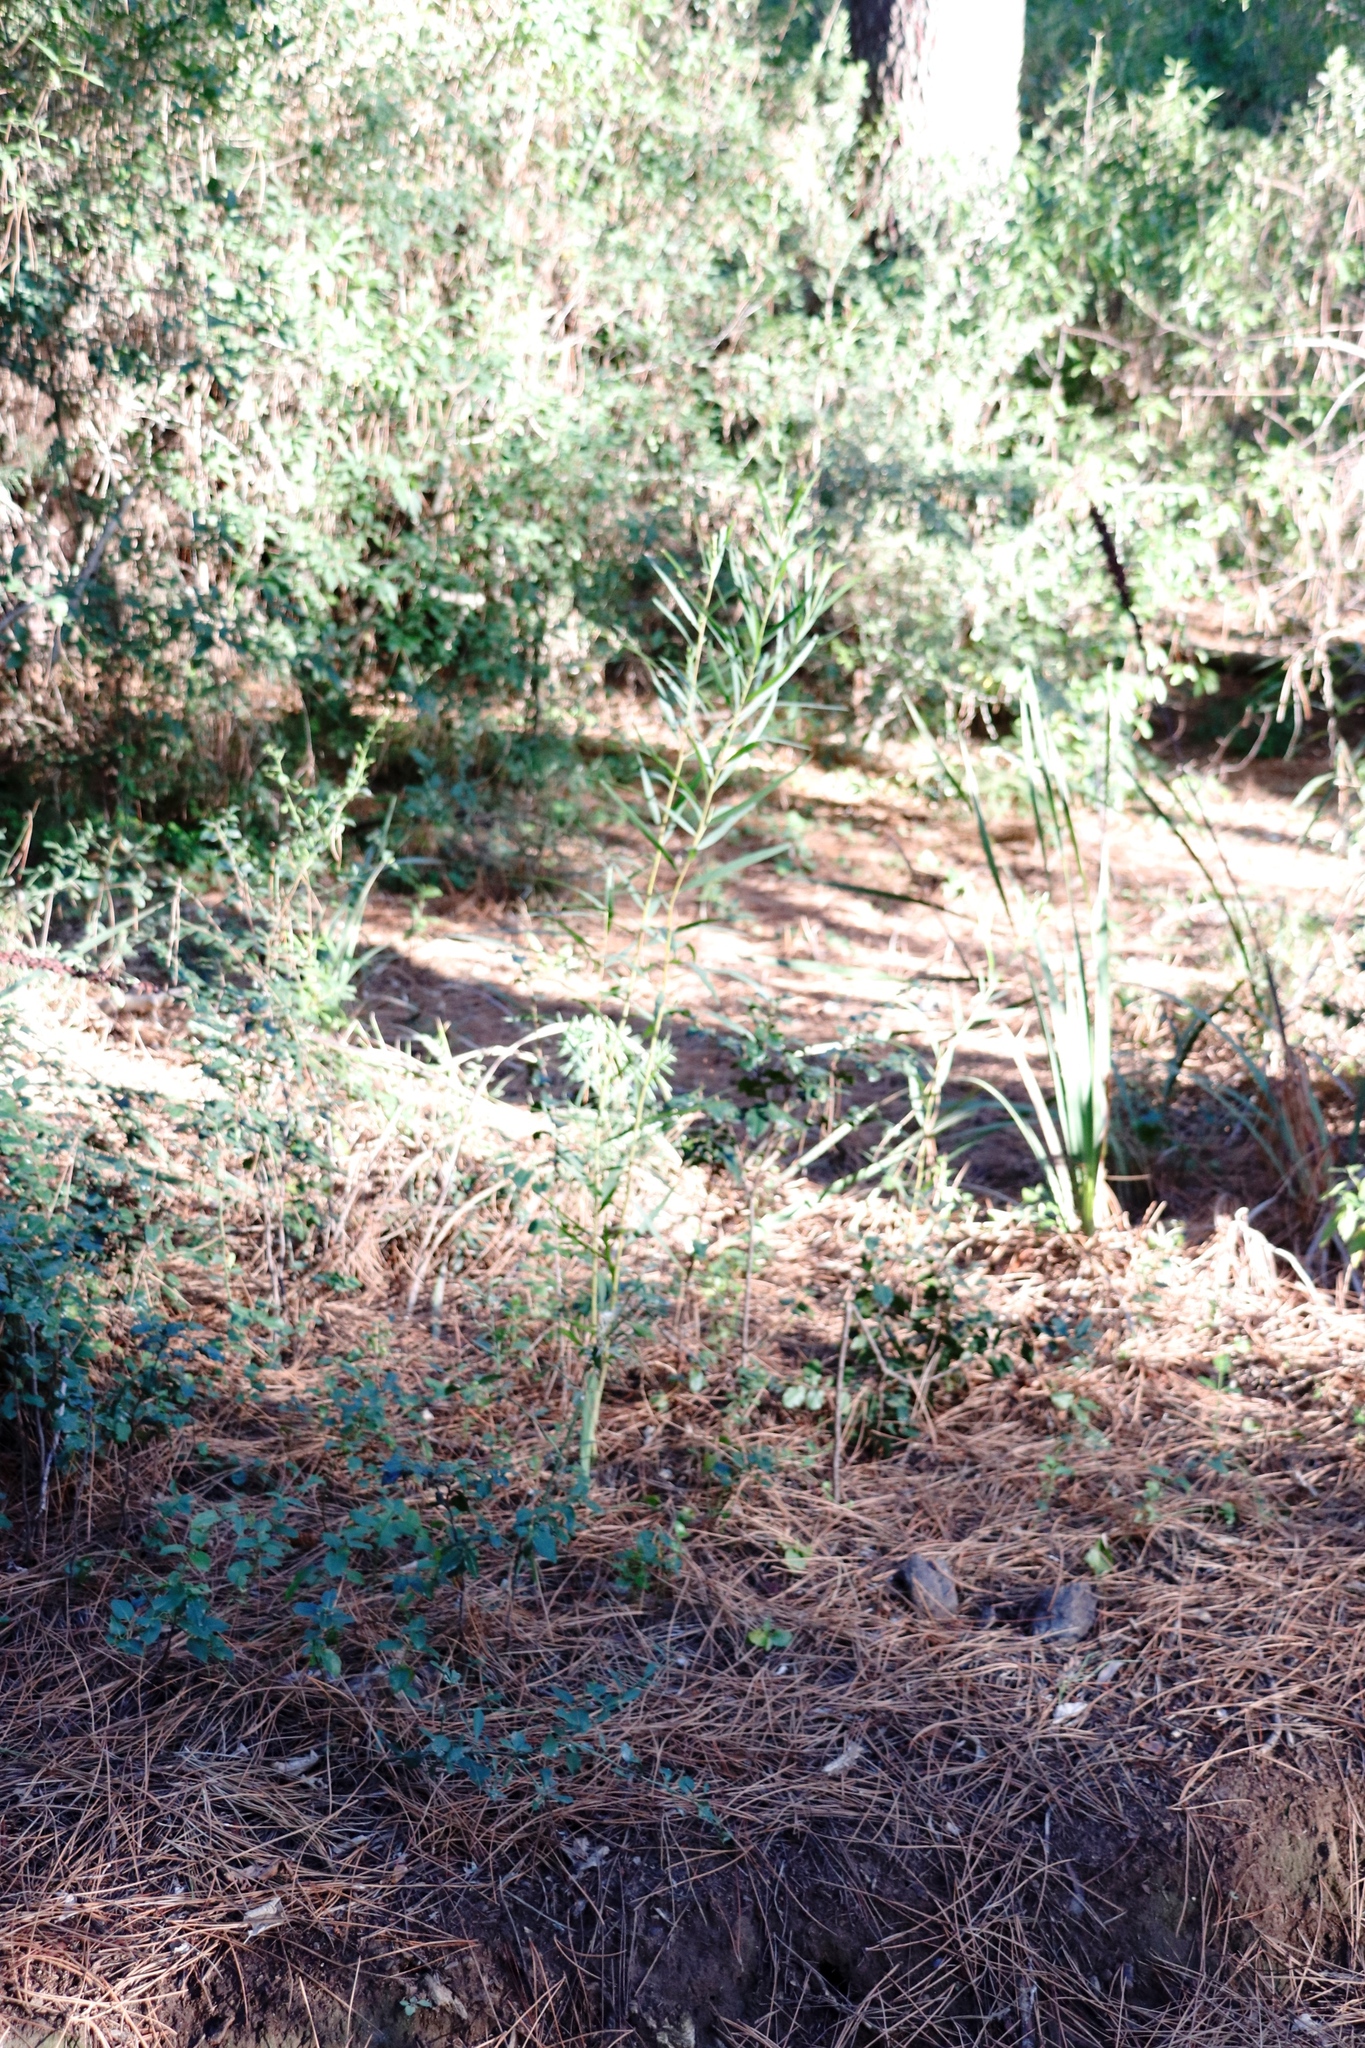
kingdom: Plantae
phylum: Tracheophyta
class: Magnoliopsida
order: Fabales
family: Fabaceae
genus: Acacia
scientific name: Acacia longifolia
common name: Sydney golden wattle
